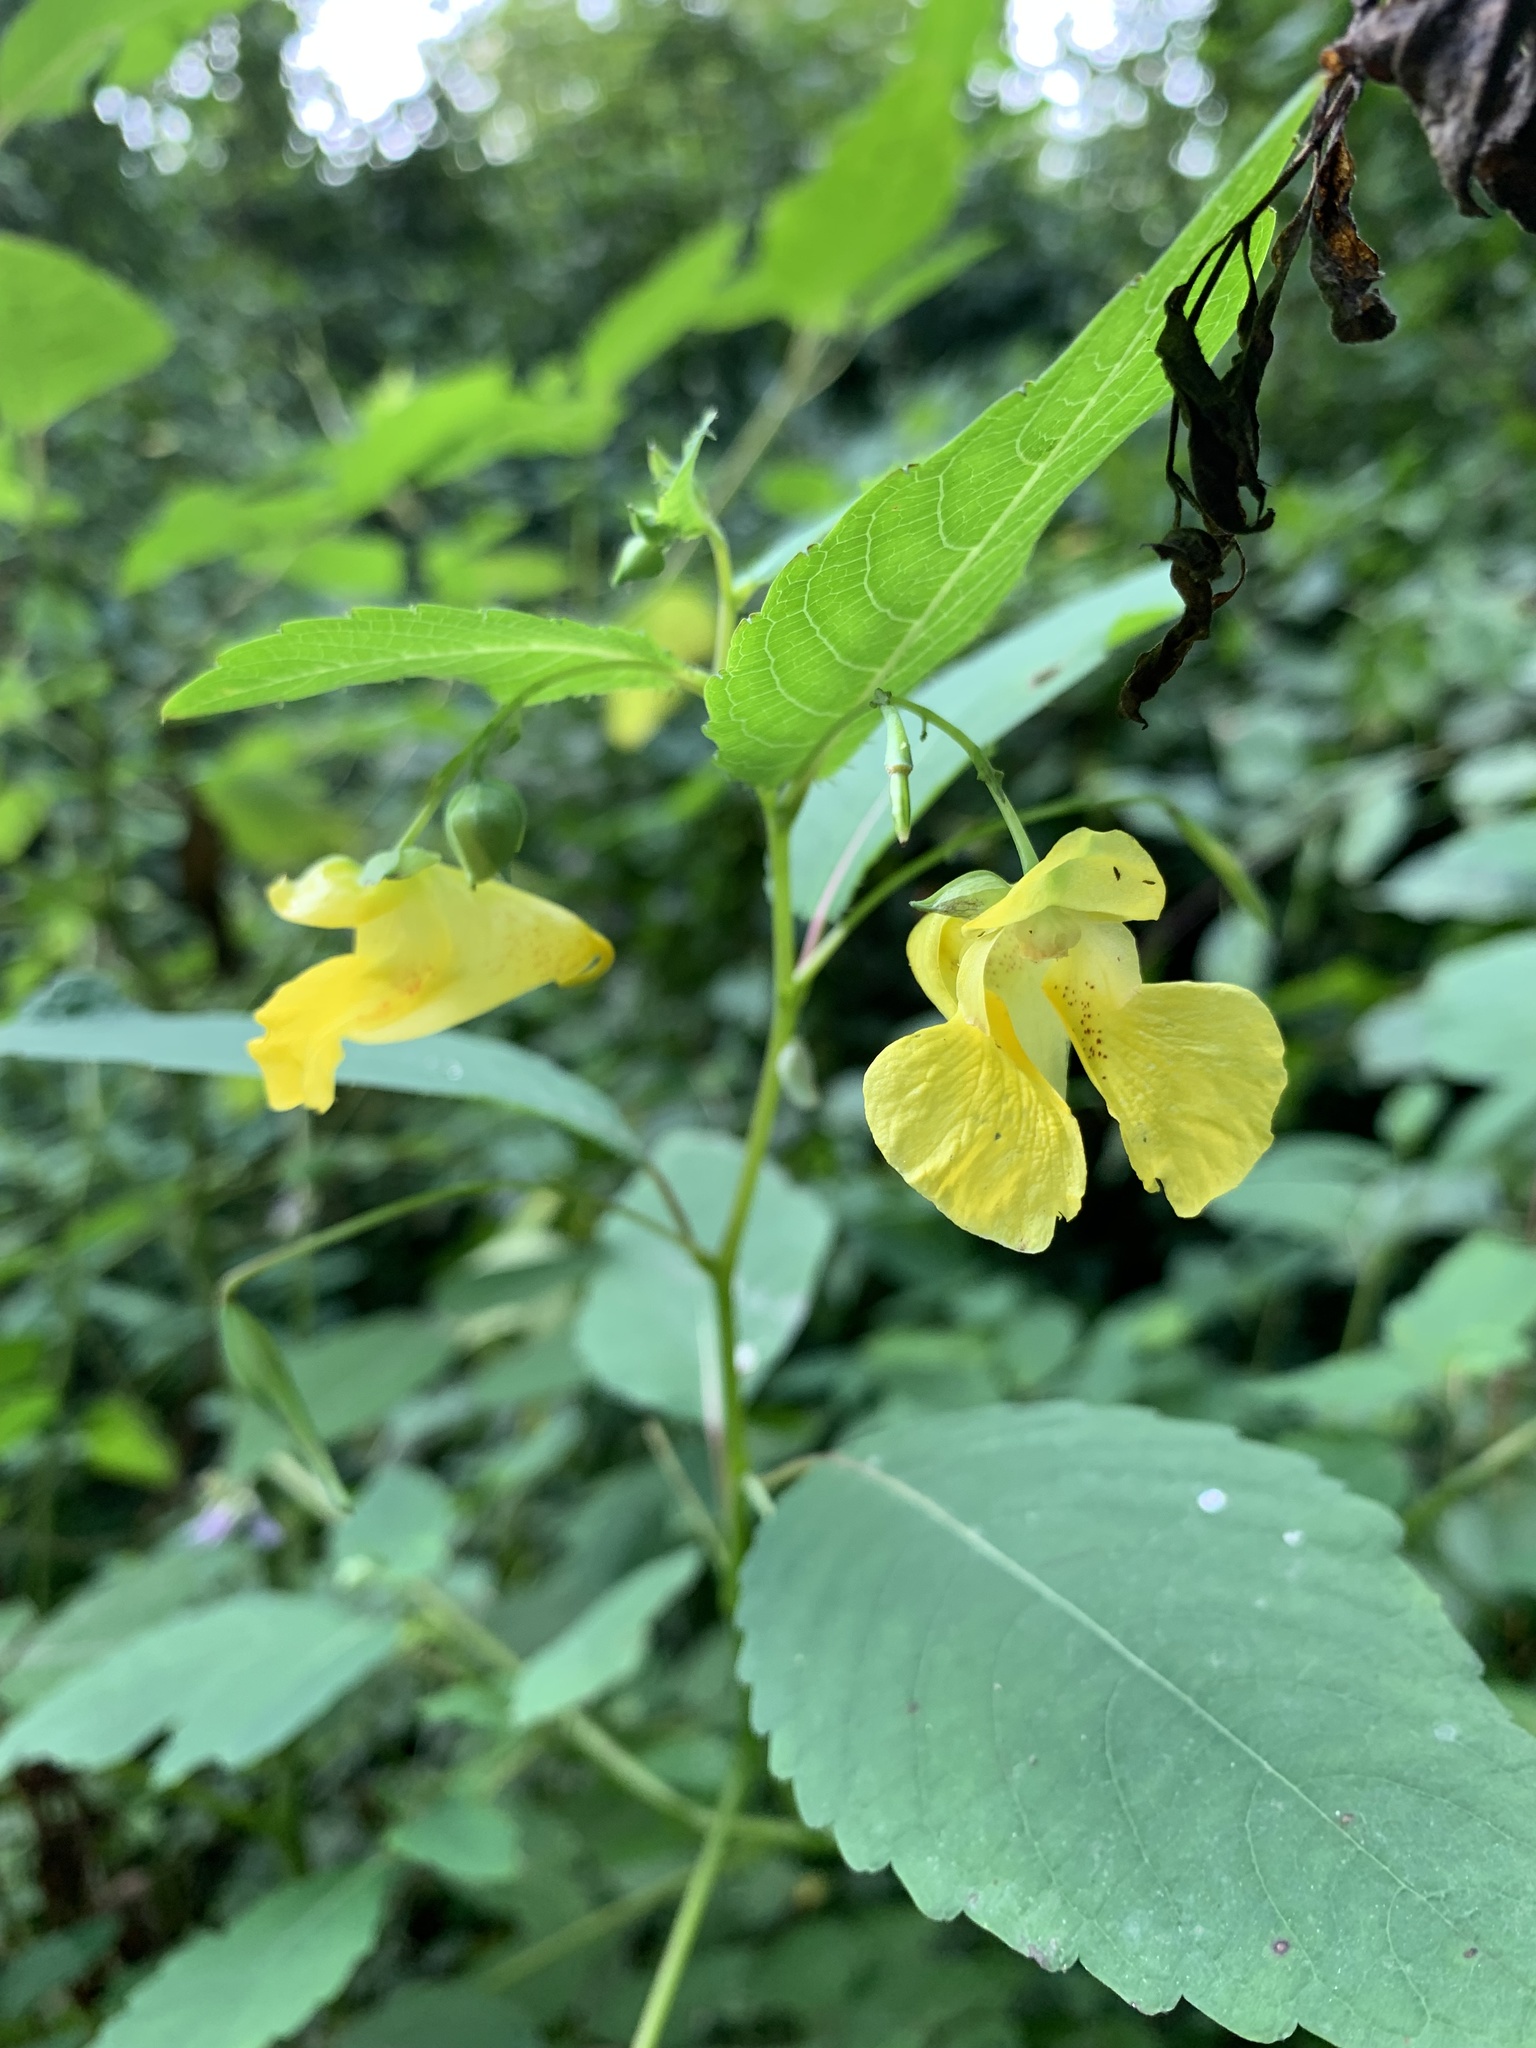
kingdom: Plantae
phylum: Tracheophyta
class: Magnoliopsida
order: Ericales
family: Balsaminaceae
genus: Impatiens
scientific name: Impatiens pallida
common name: Pale snapweed
